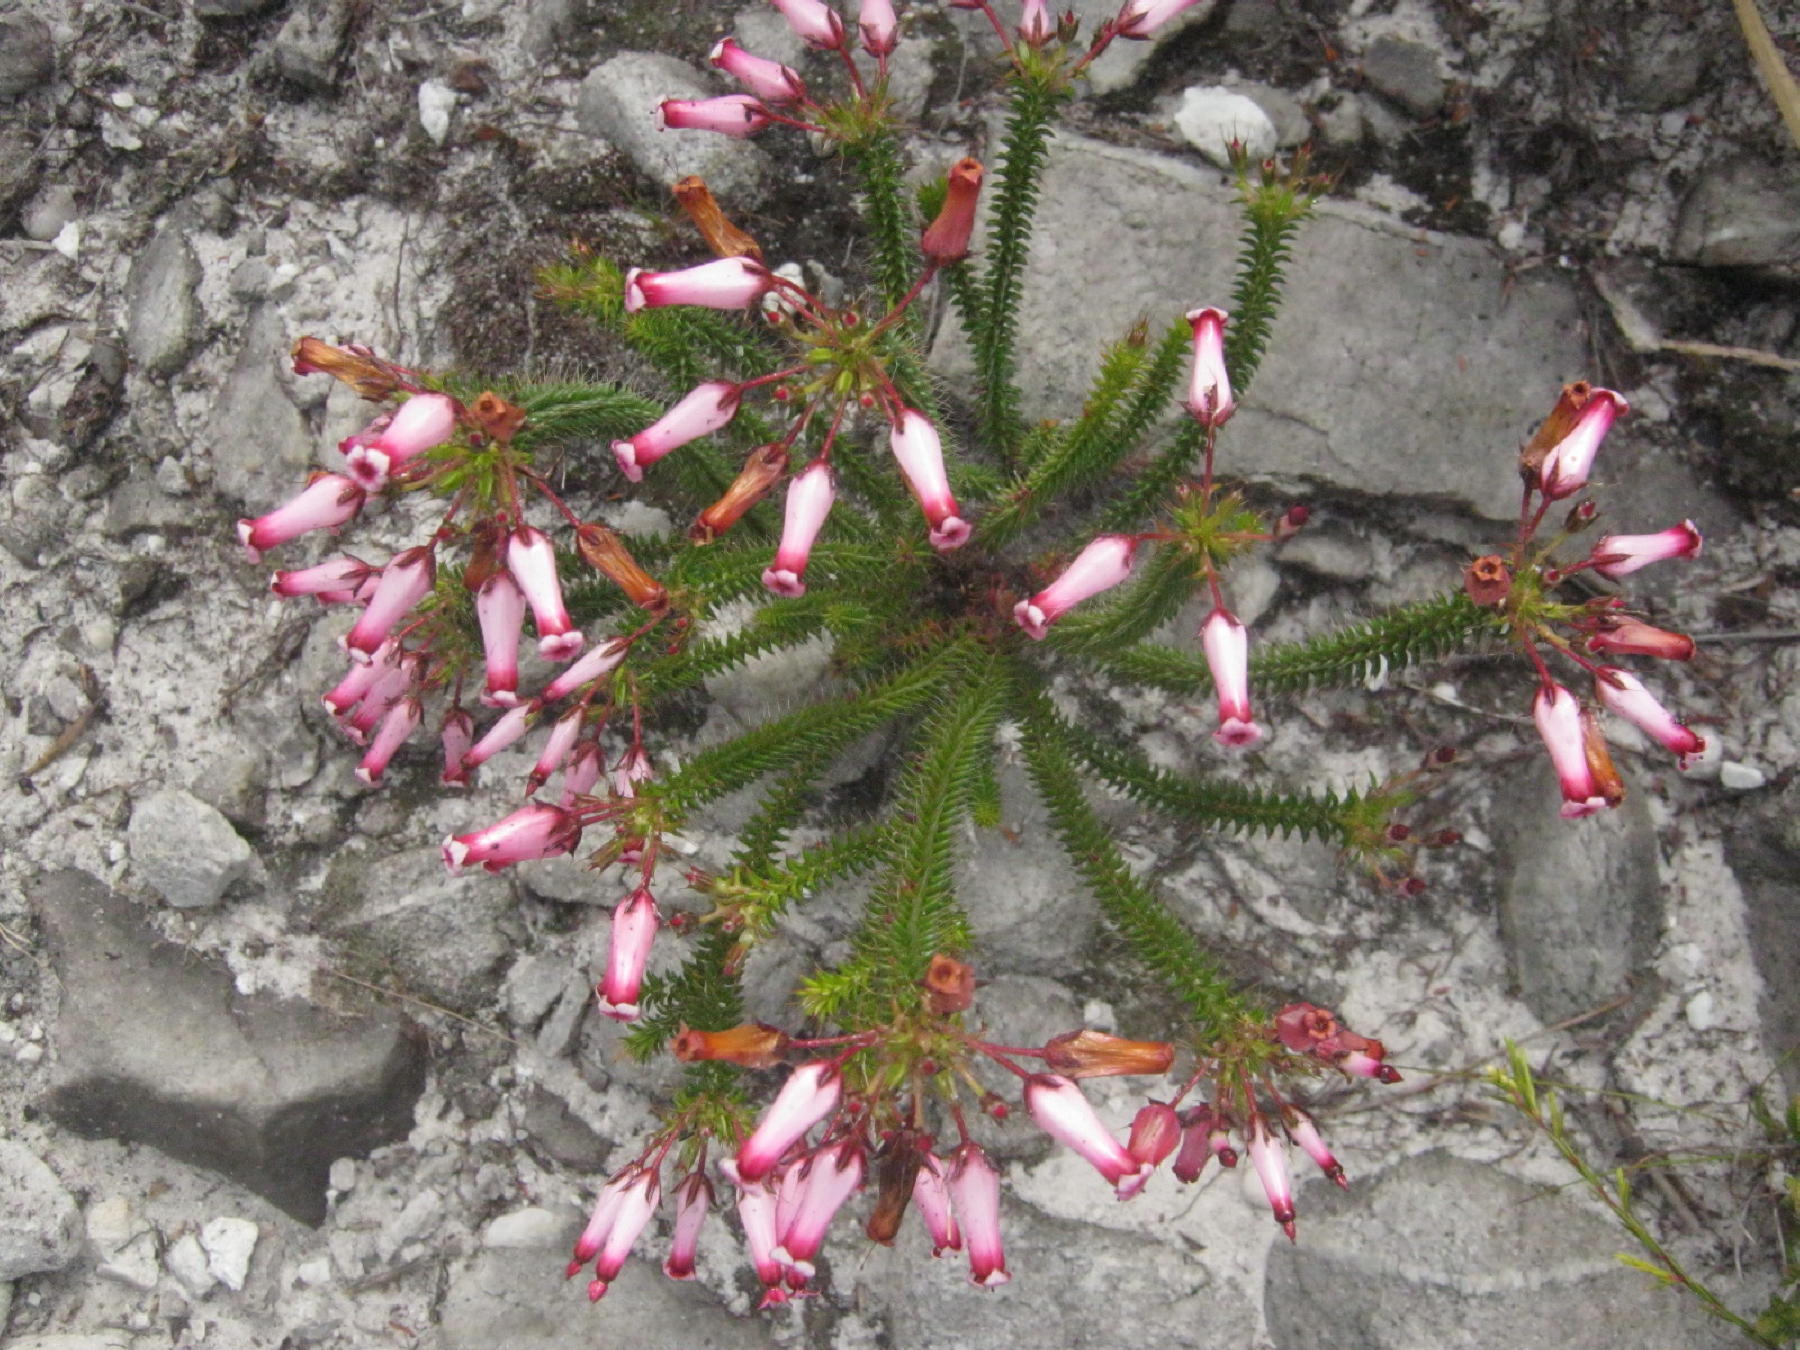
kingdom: Plantae
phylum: Tracheophyta
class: Magnoliopsida
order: Ericales
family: Ericaceae
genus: Erica
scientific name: Erica retorta
